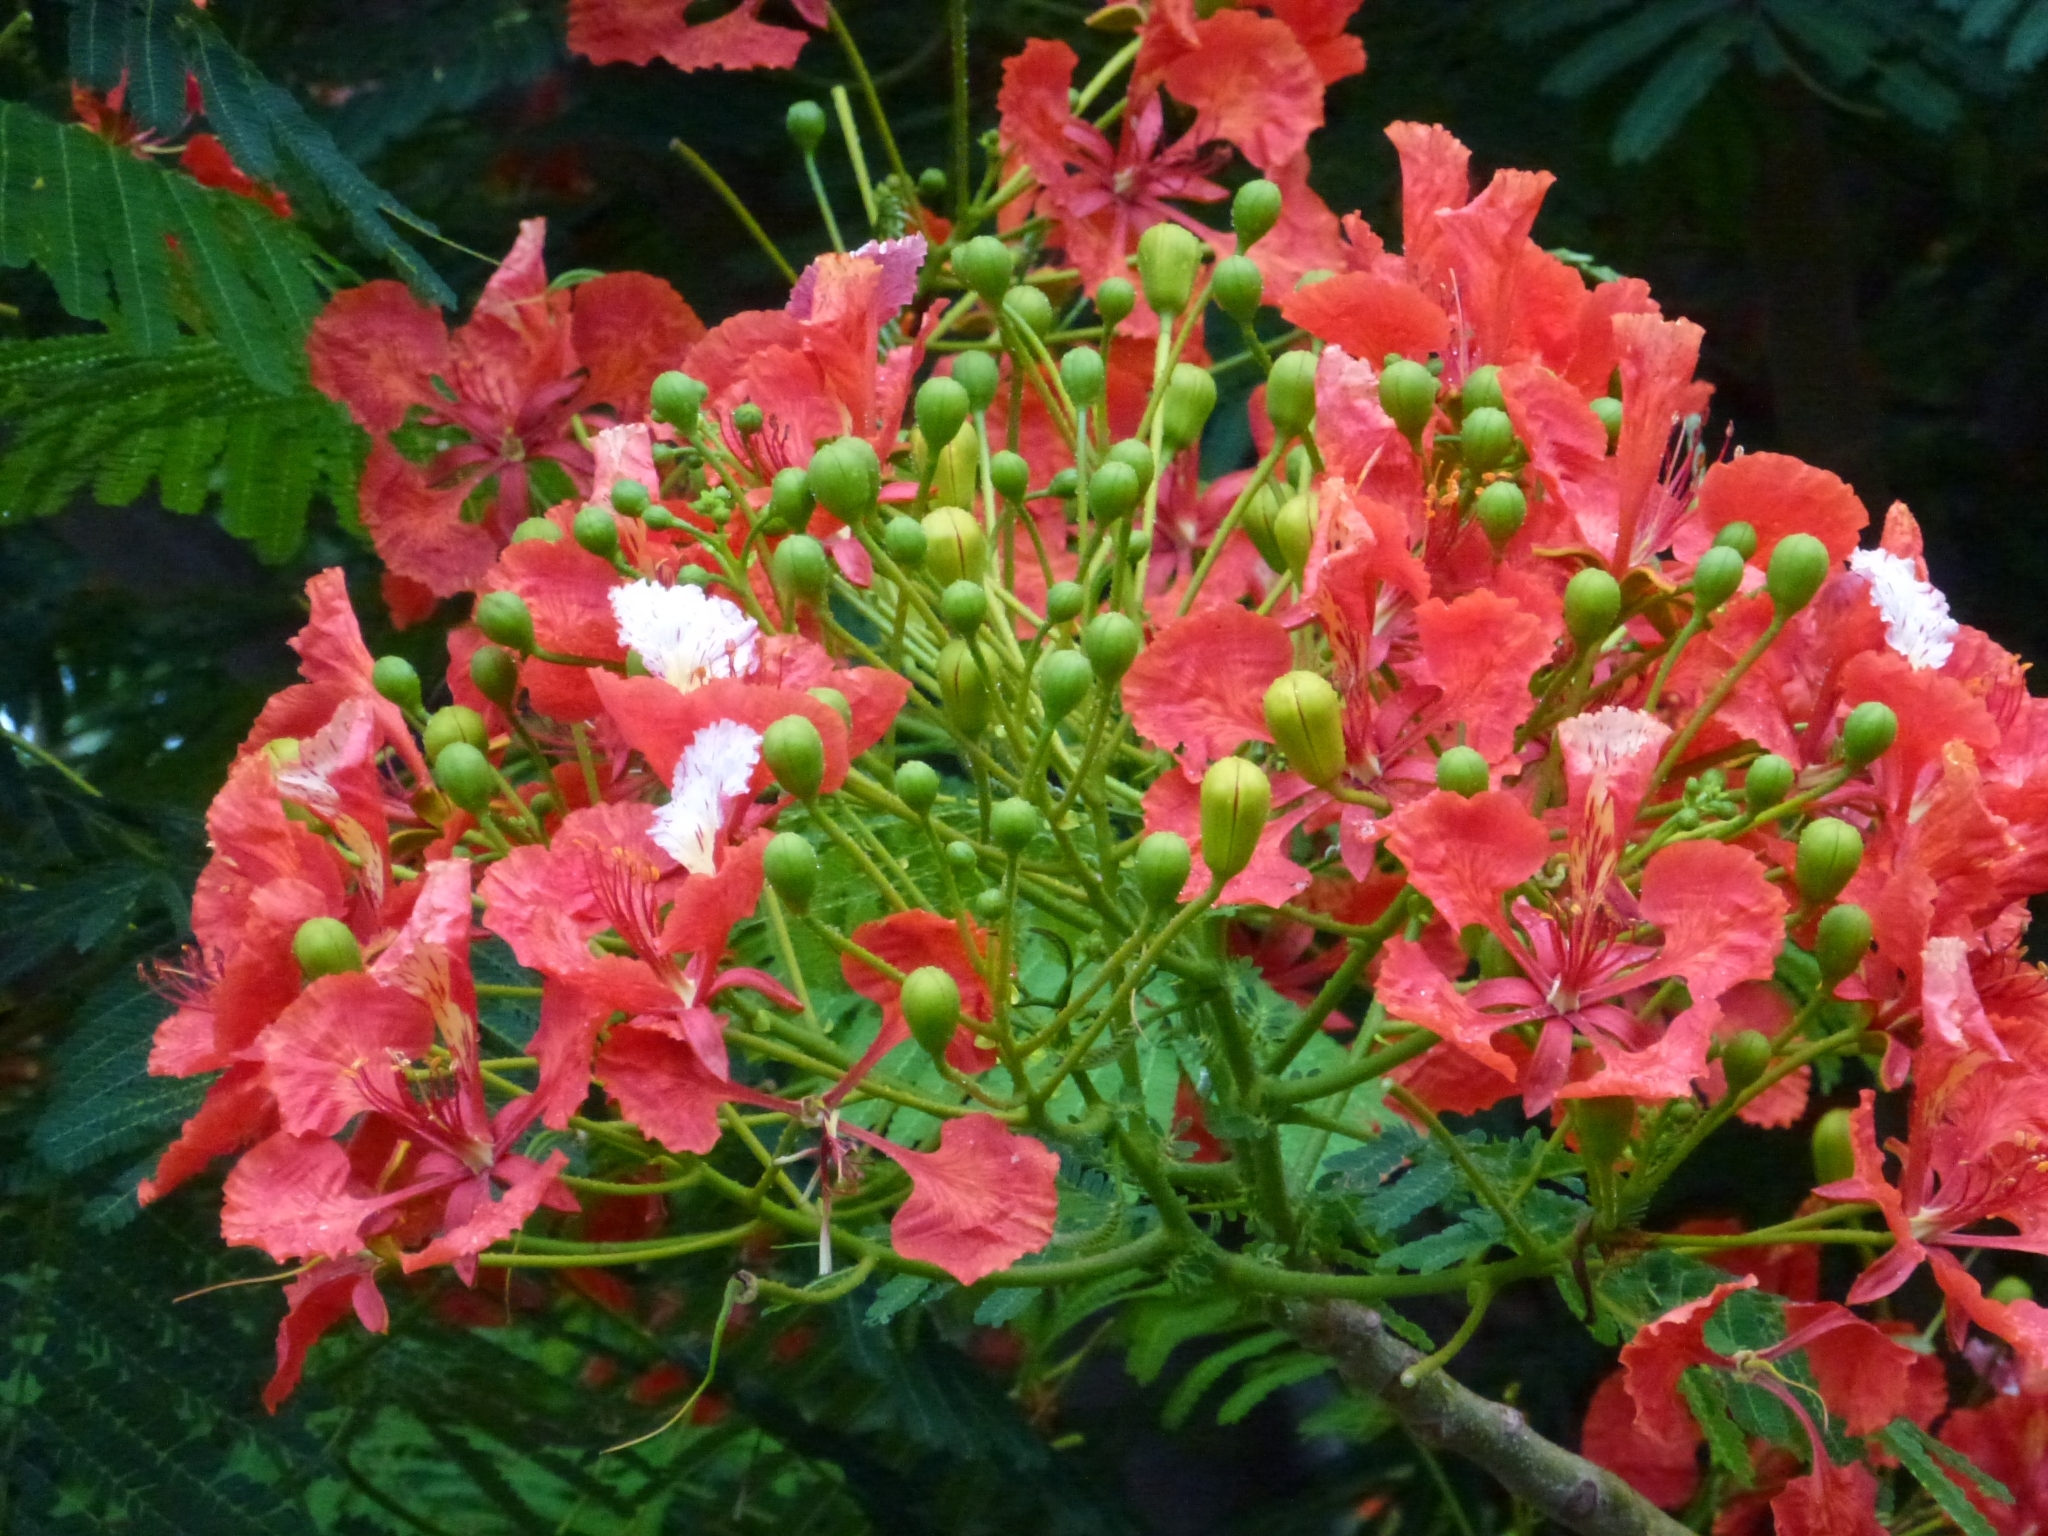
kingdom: Plantae
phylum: Tracheophyta
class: Magnoliopsida
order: Fabales
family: Fabaceae
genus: Delonix
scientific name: Delonix regia
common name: Royal poinciana
